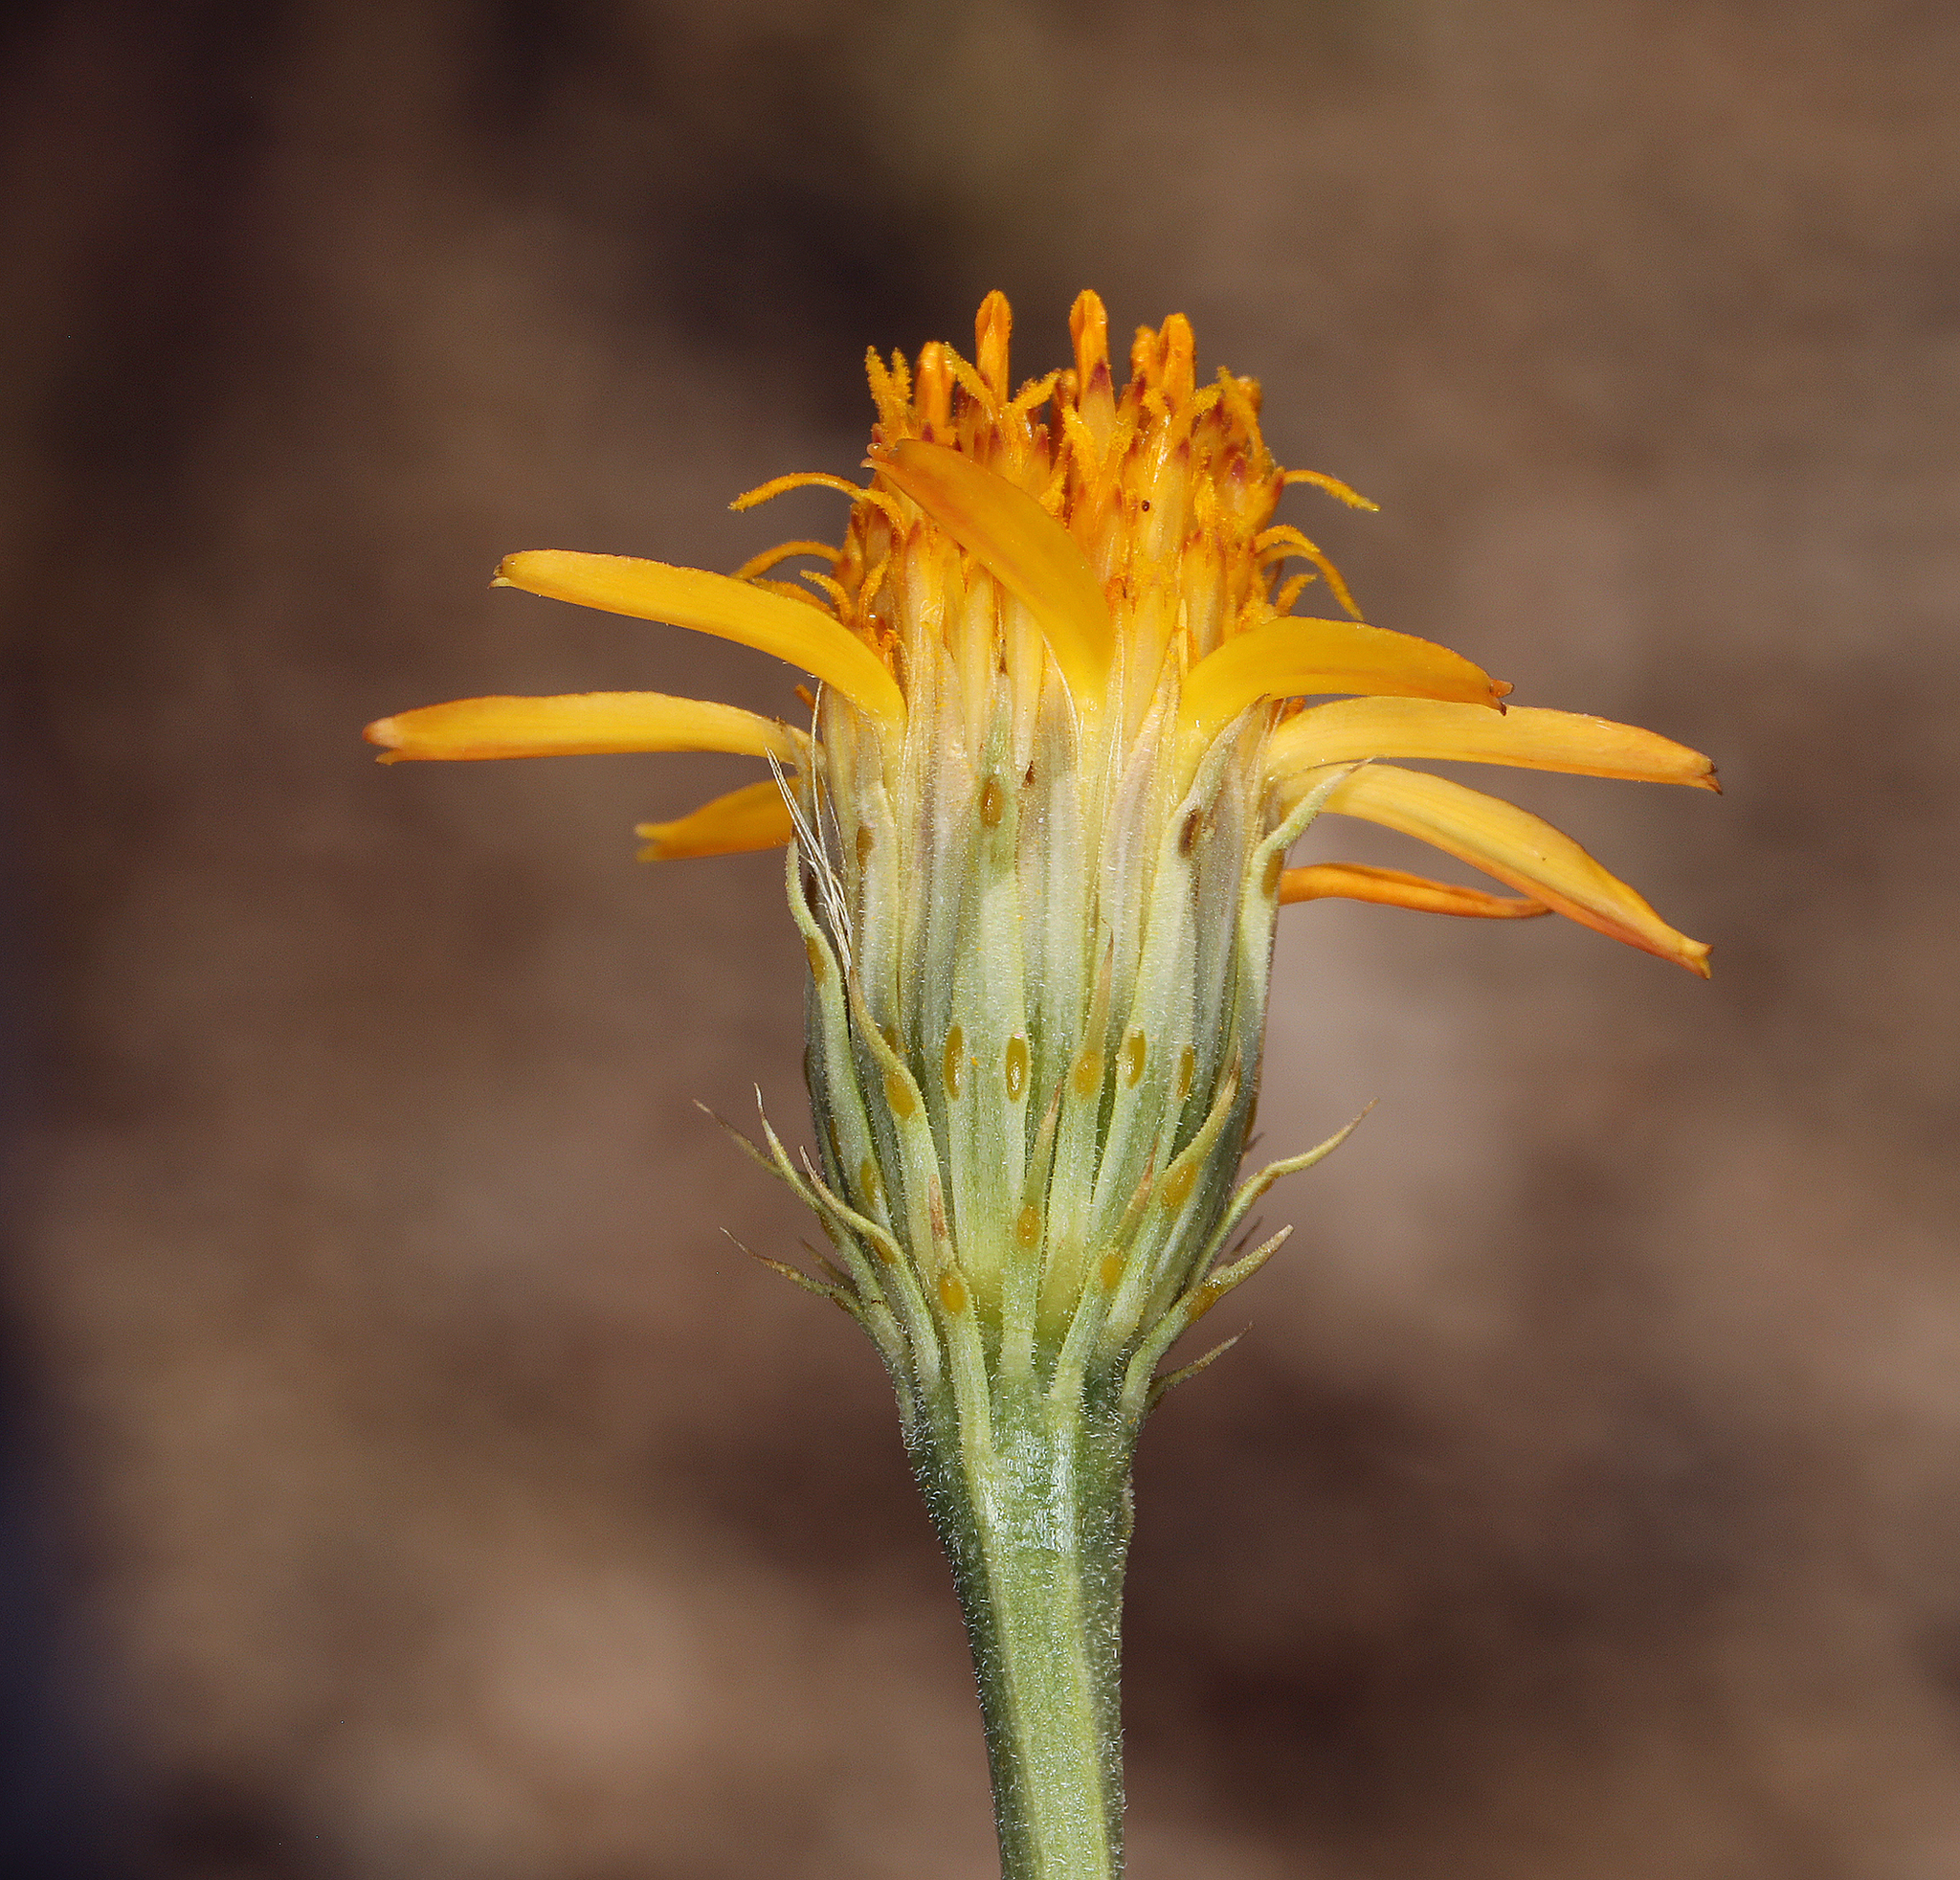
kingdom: Plantae
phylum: Tracheophyta
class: Magnoliopsida
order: Asterales
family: Asteraceae
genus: Adenophyllum
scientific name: Adenophyllum cooperi
